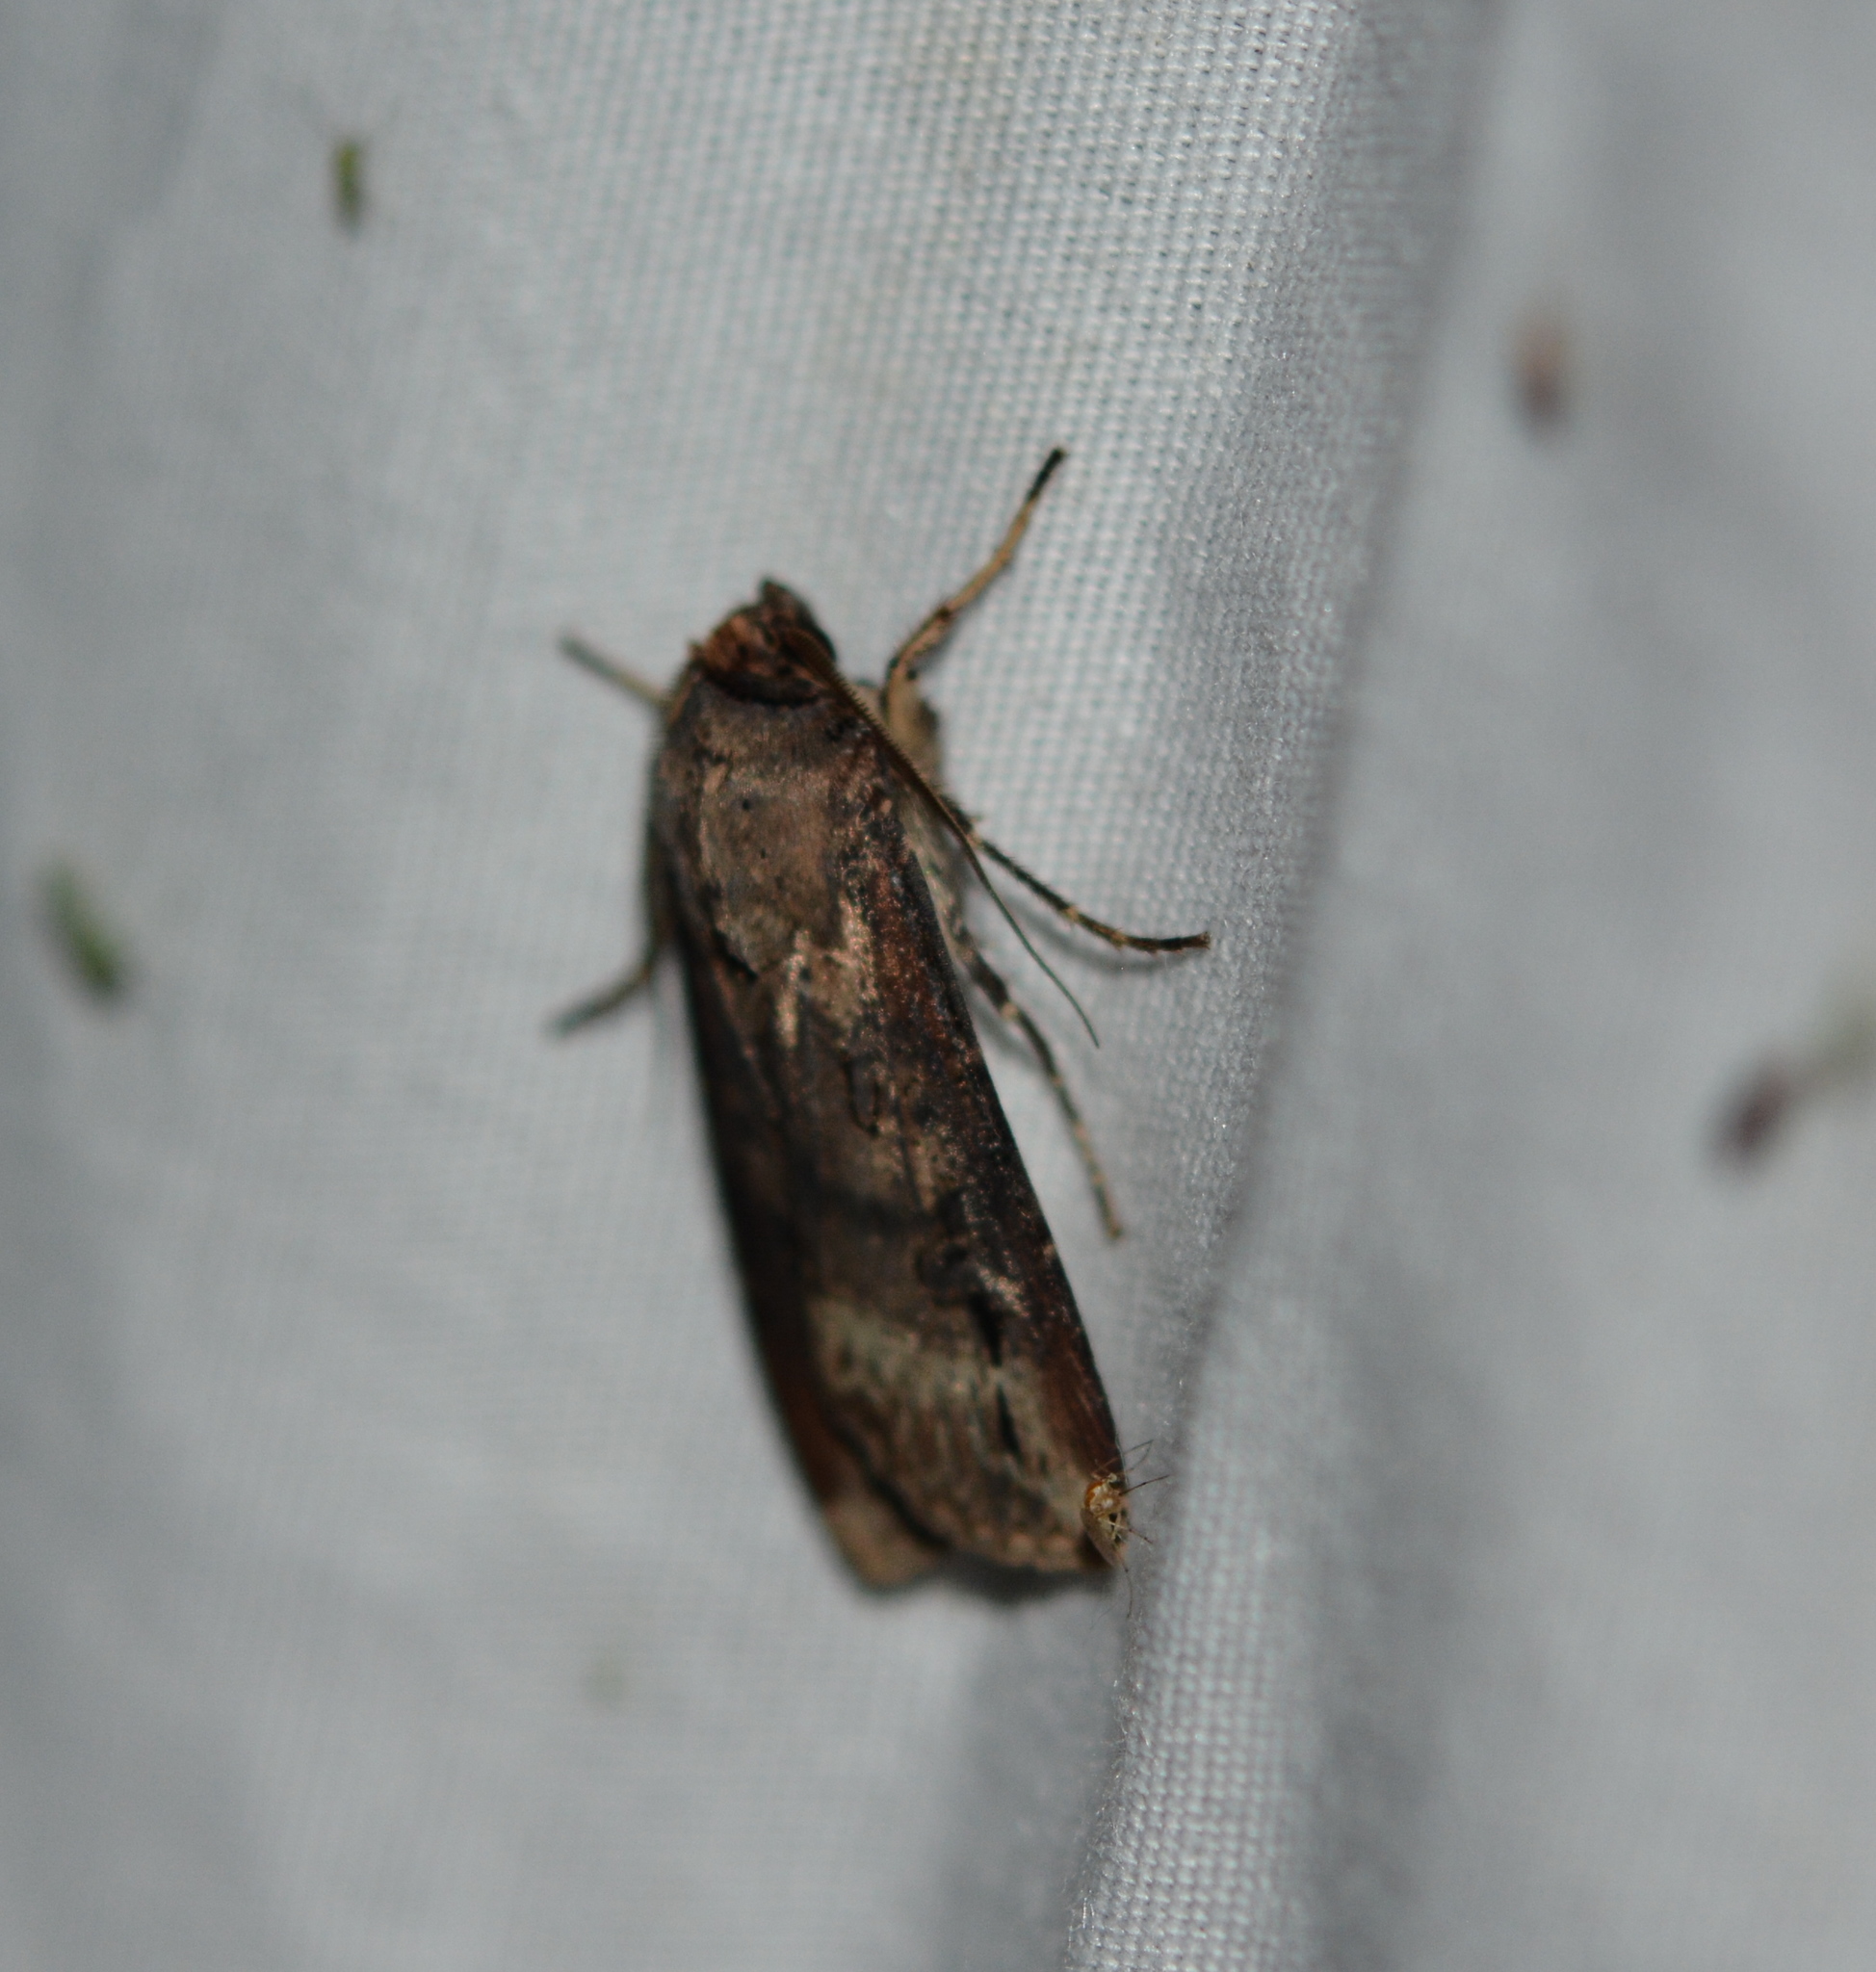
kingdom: Animalia
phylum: Arthropoda
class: Insecta
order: Lepidoptera
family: Noctuidae
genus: Agrotis
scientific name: Agrotis ipsilon
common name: Dark sword-grass
